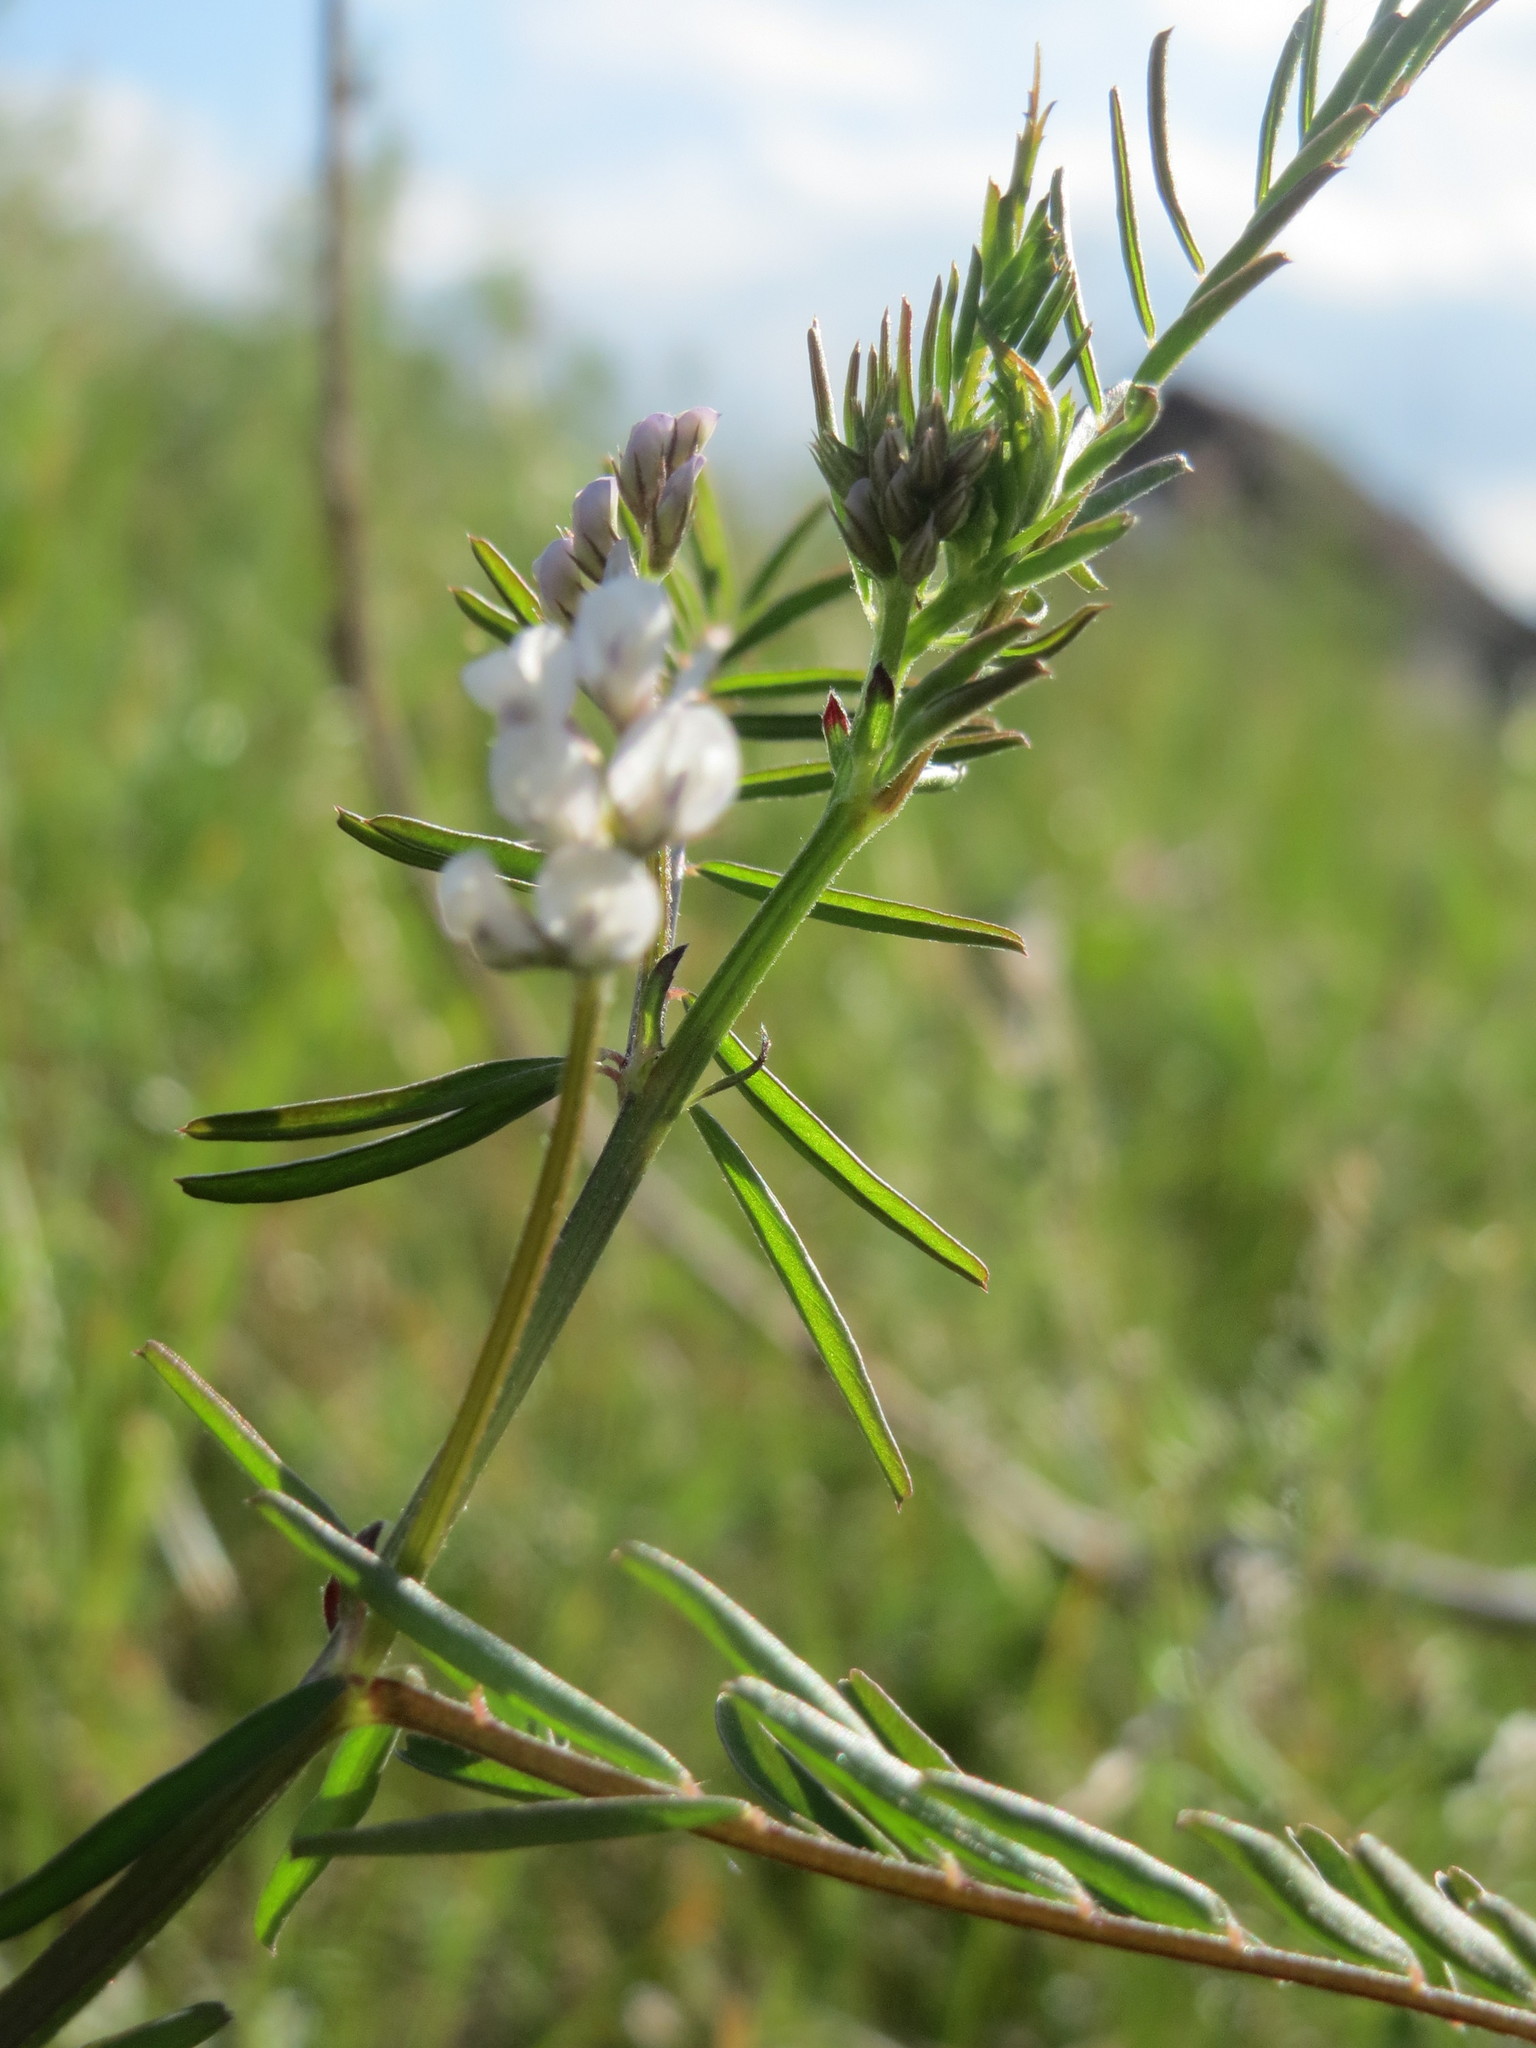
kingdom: Plantae
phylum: Tracheophyta
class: Magnoliopsida
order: Fabales
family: Fabaceae
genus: Vicia
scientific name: Vicia hirsuta
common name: Tiny vetch
